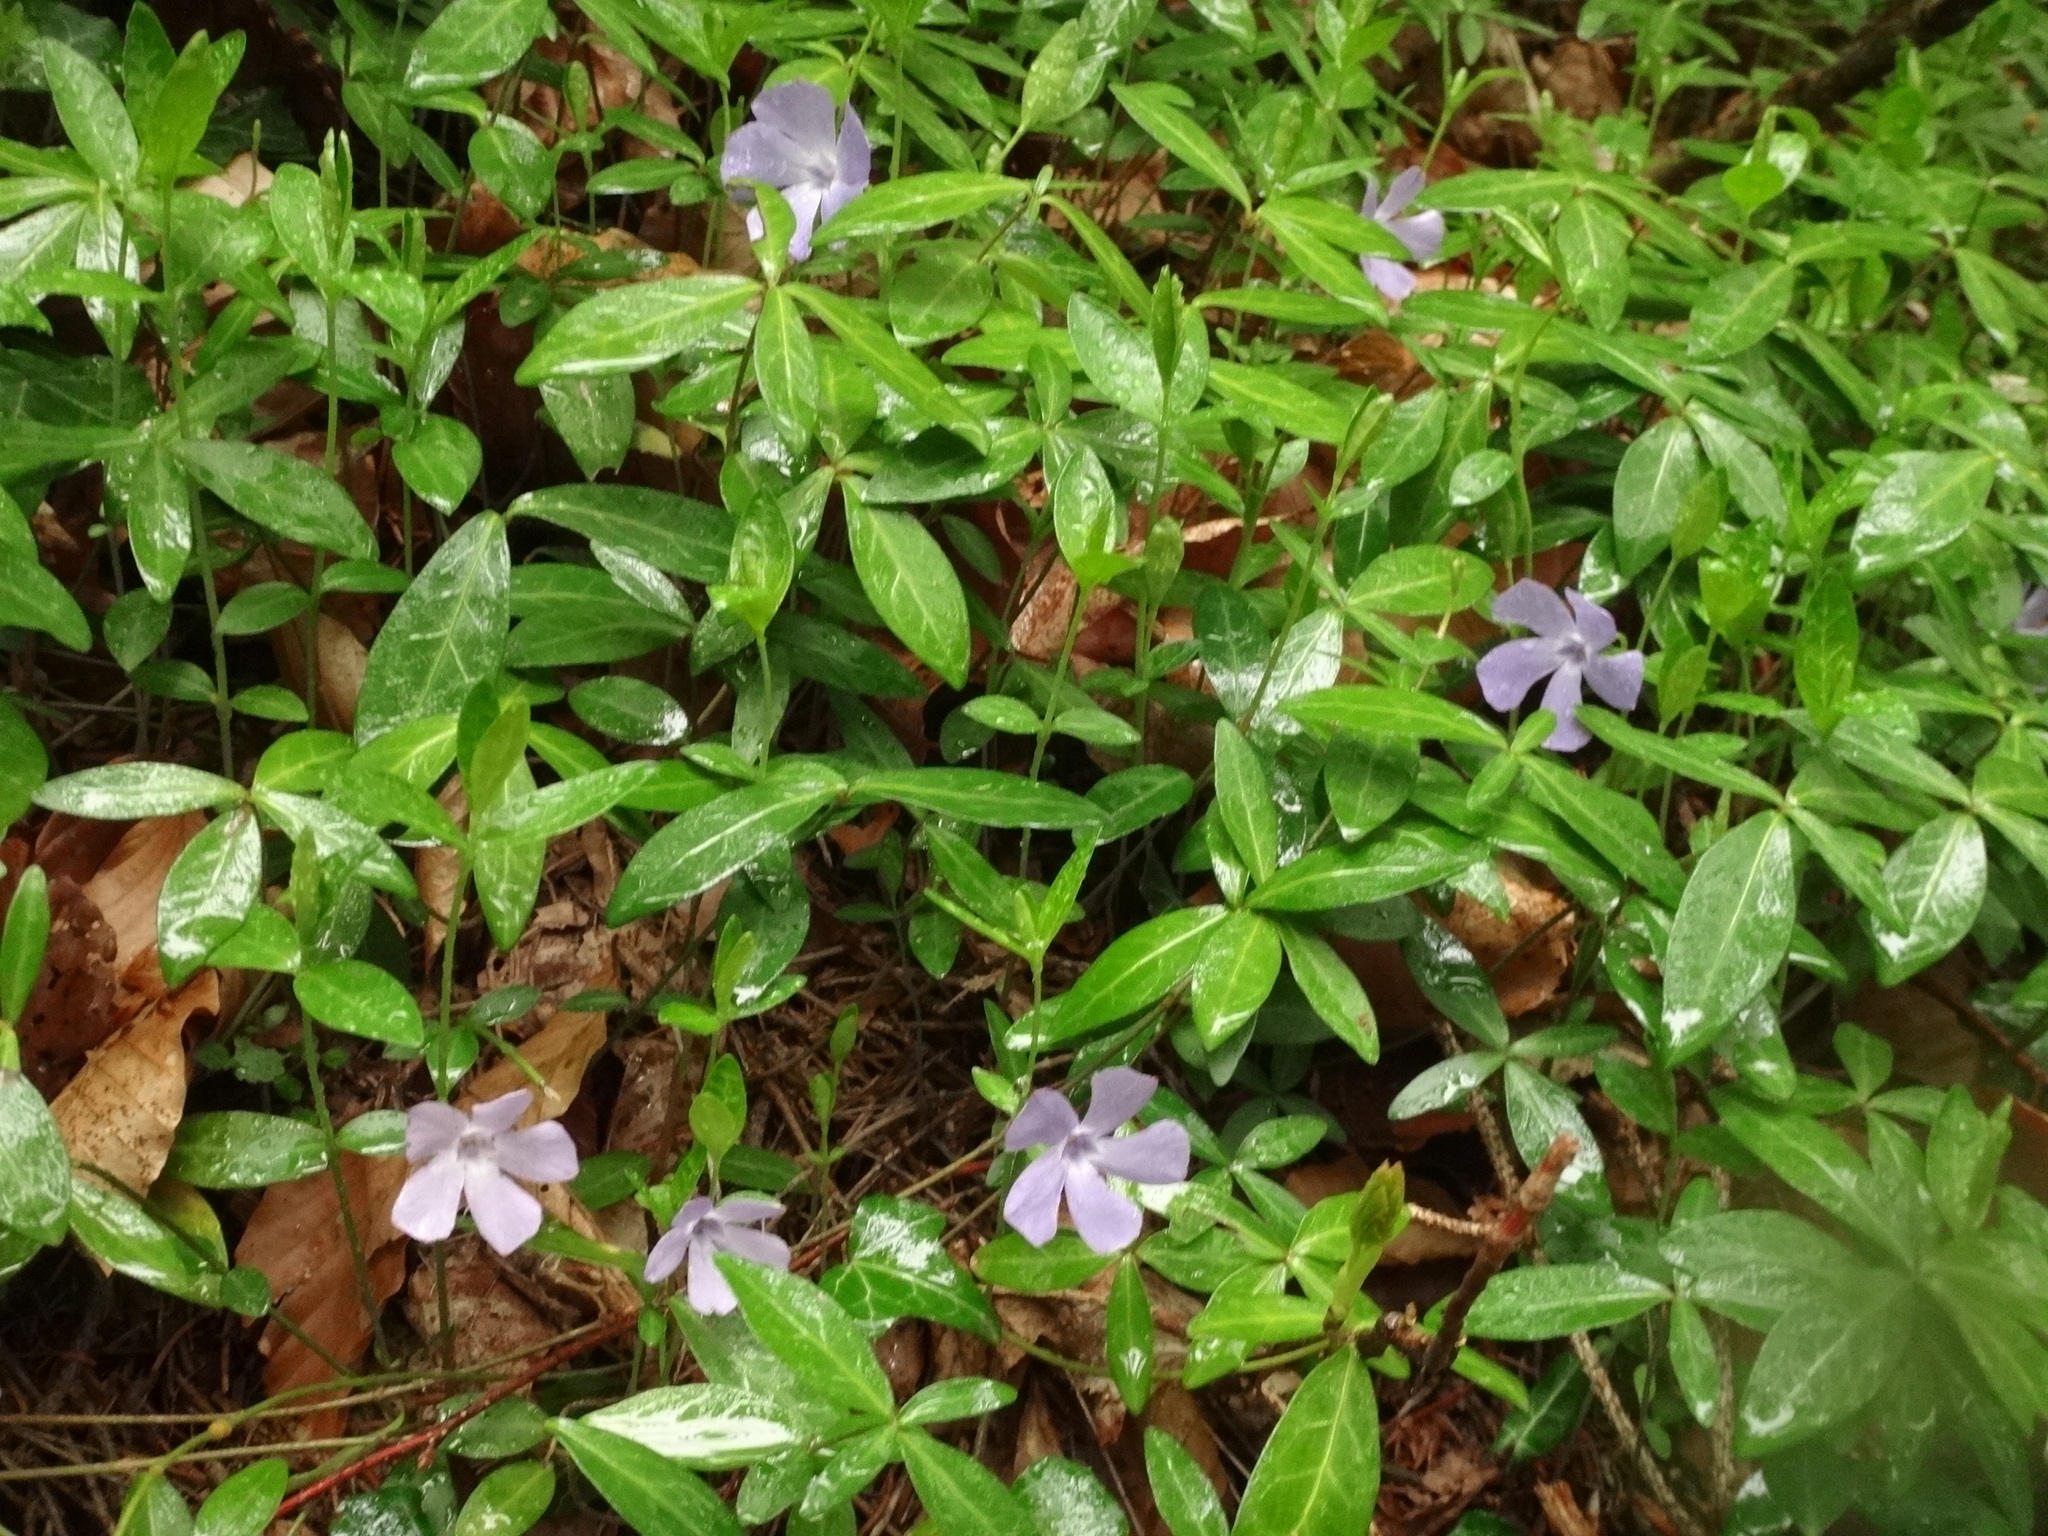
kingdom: Plantae
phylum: Tracheophyta
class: Magnoliopsida
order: Gentianales
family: Apocynaceae
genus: Vinca
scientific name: Vinca minor
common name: Lesser periwinkle
